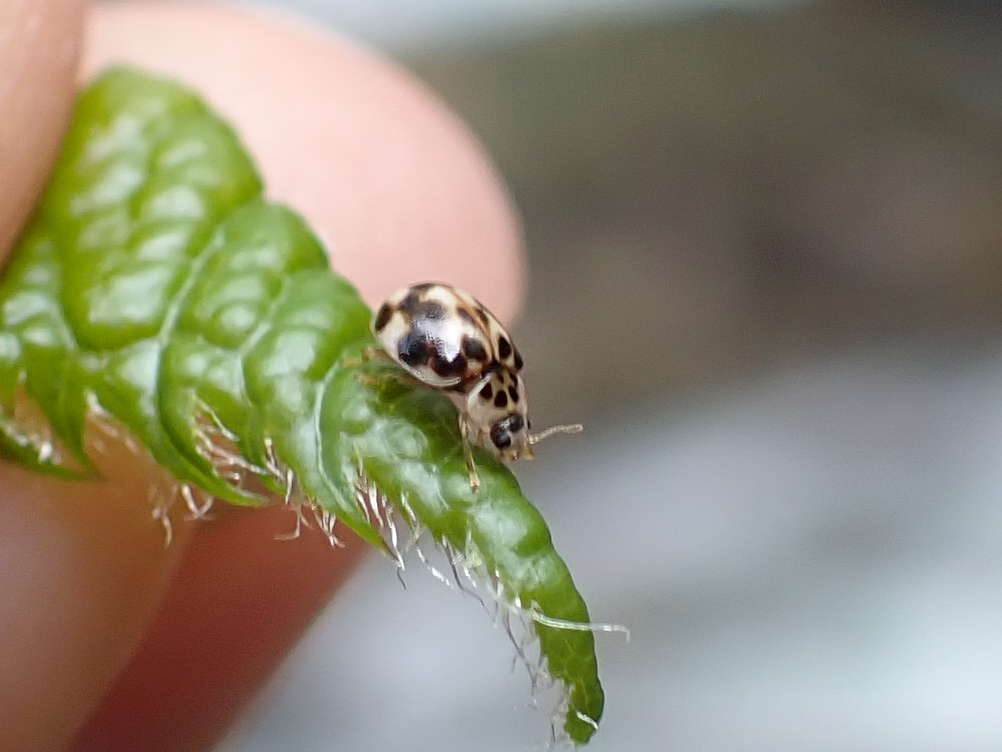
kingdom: Animalia
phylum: Arthropoda
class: Insecta
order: Coleoptera
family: Coccinellidae
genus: Psyllobora
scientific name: Psyllobora vigintimaculata
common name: Ladybird beetle
